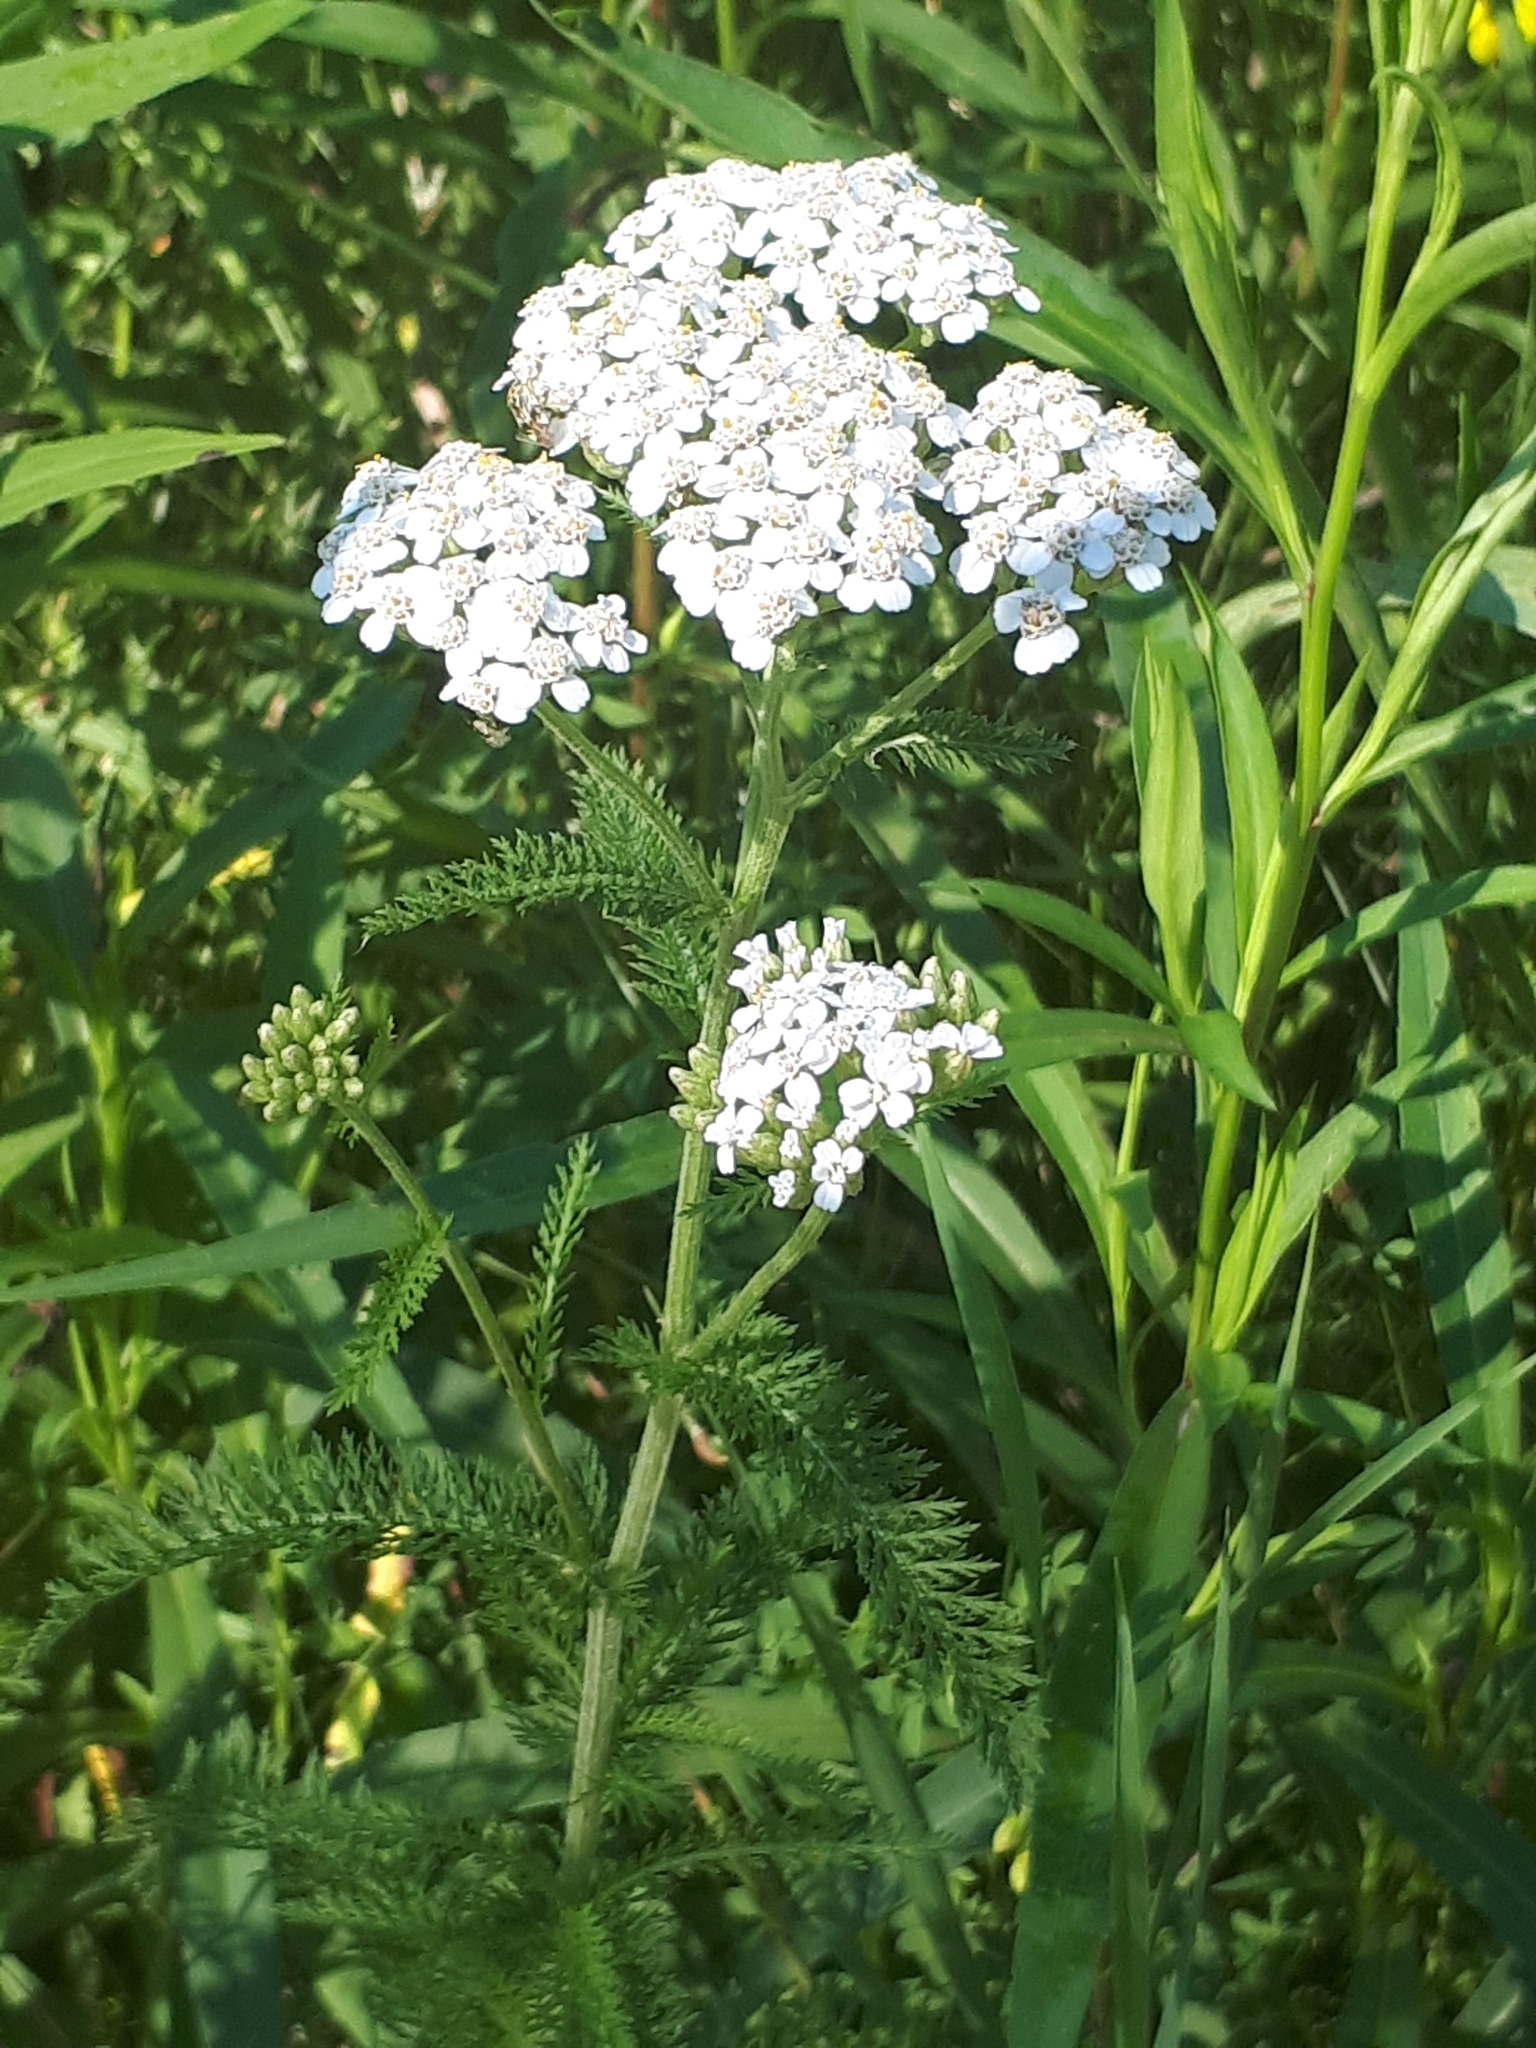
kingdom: Plantae
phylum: Tracheophyta
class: Magnoliopsida
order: Asterales
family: Asteraceae
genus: Achillea
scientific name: Achillea millefolium
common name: Yarrow
